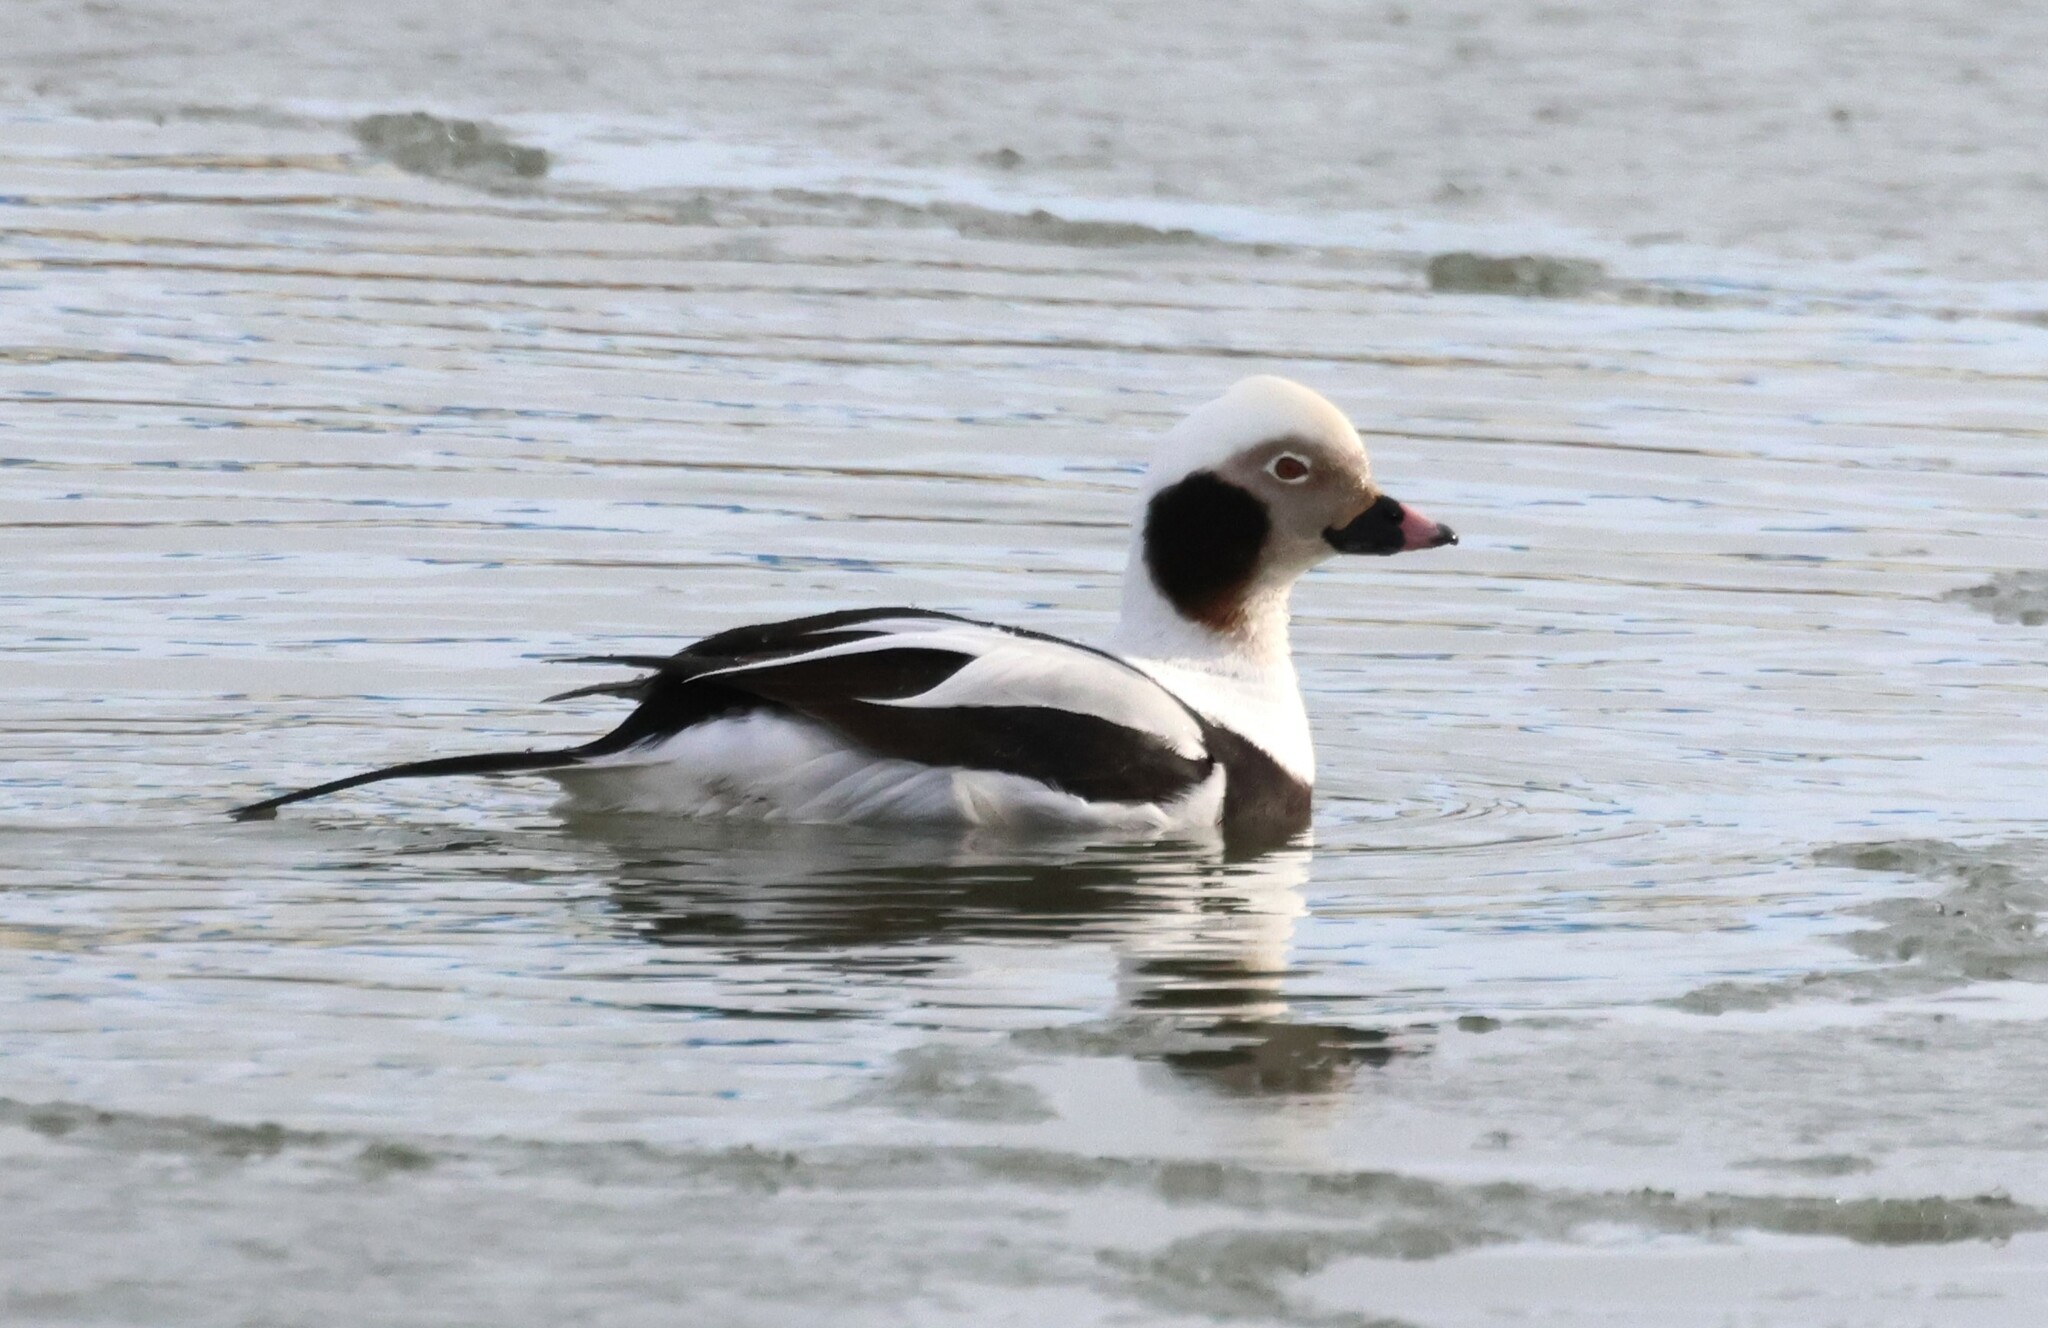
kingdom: Animalia
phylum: Chordata
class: Aves
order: Anseriformes
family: Anatidae
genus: Clangula
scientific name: Clangula hyemalis
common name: Long-tailed duck
